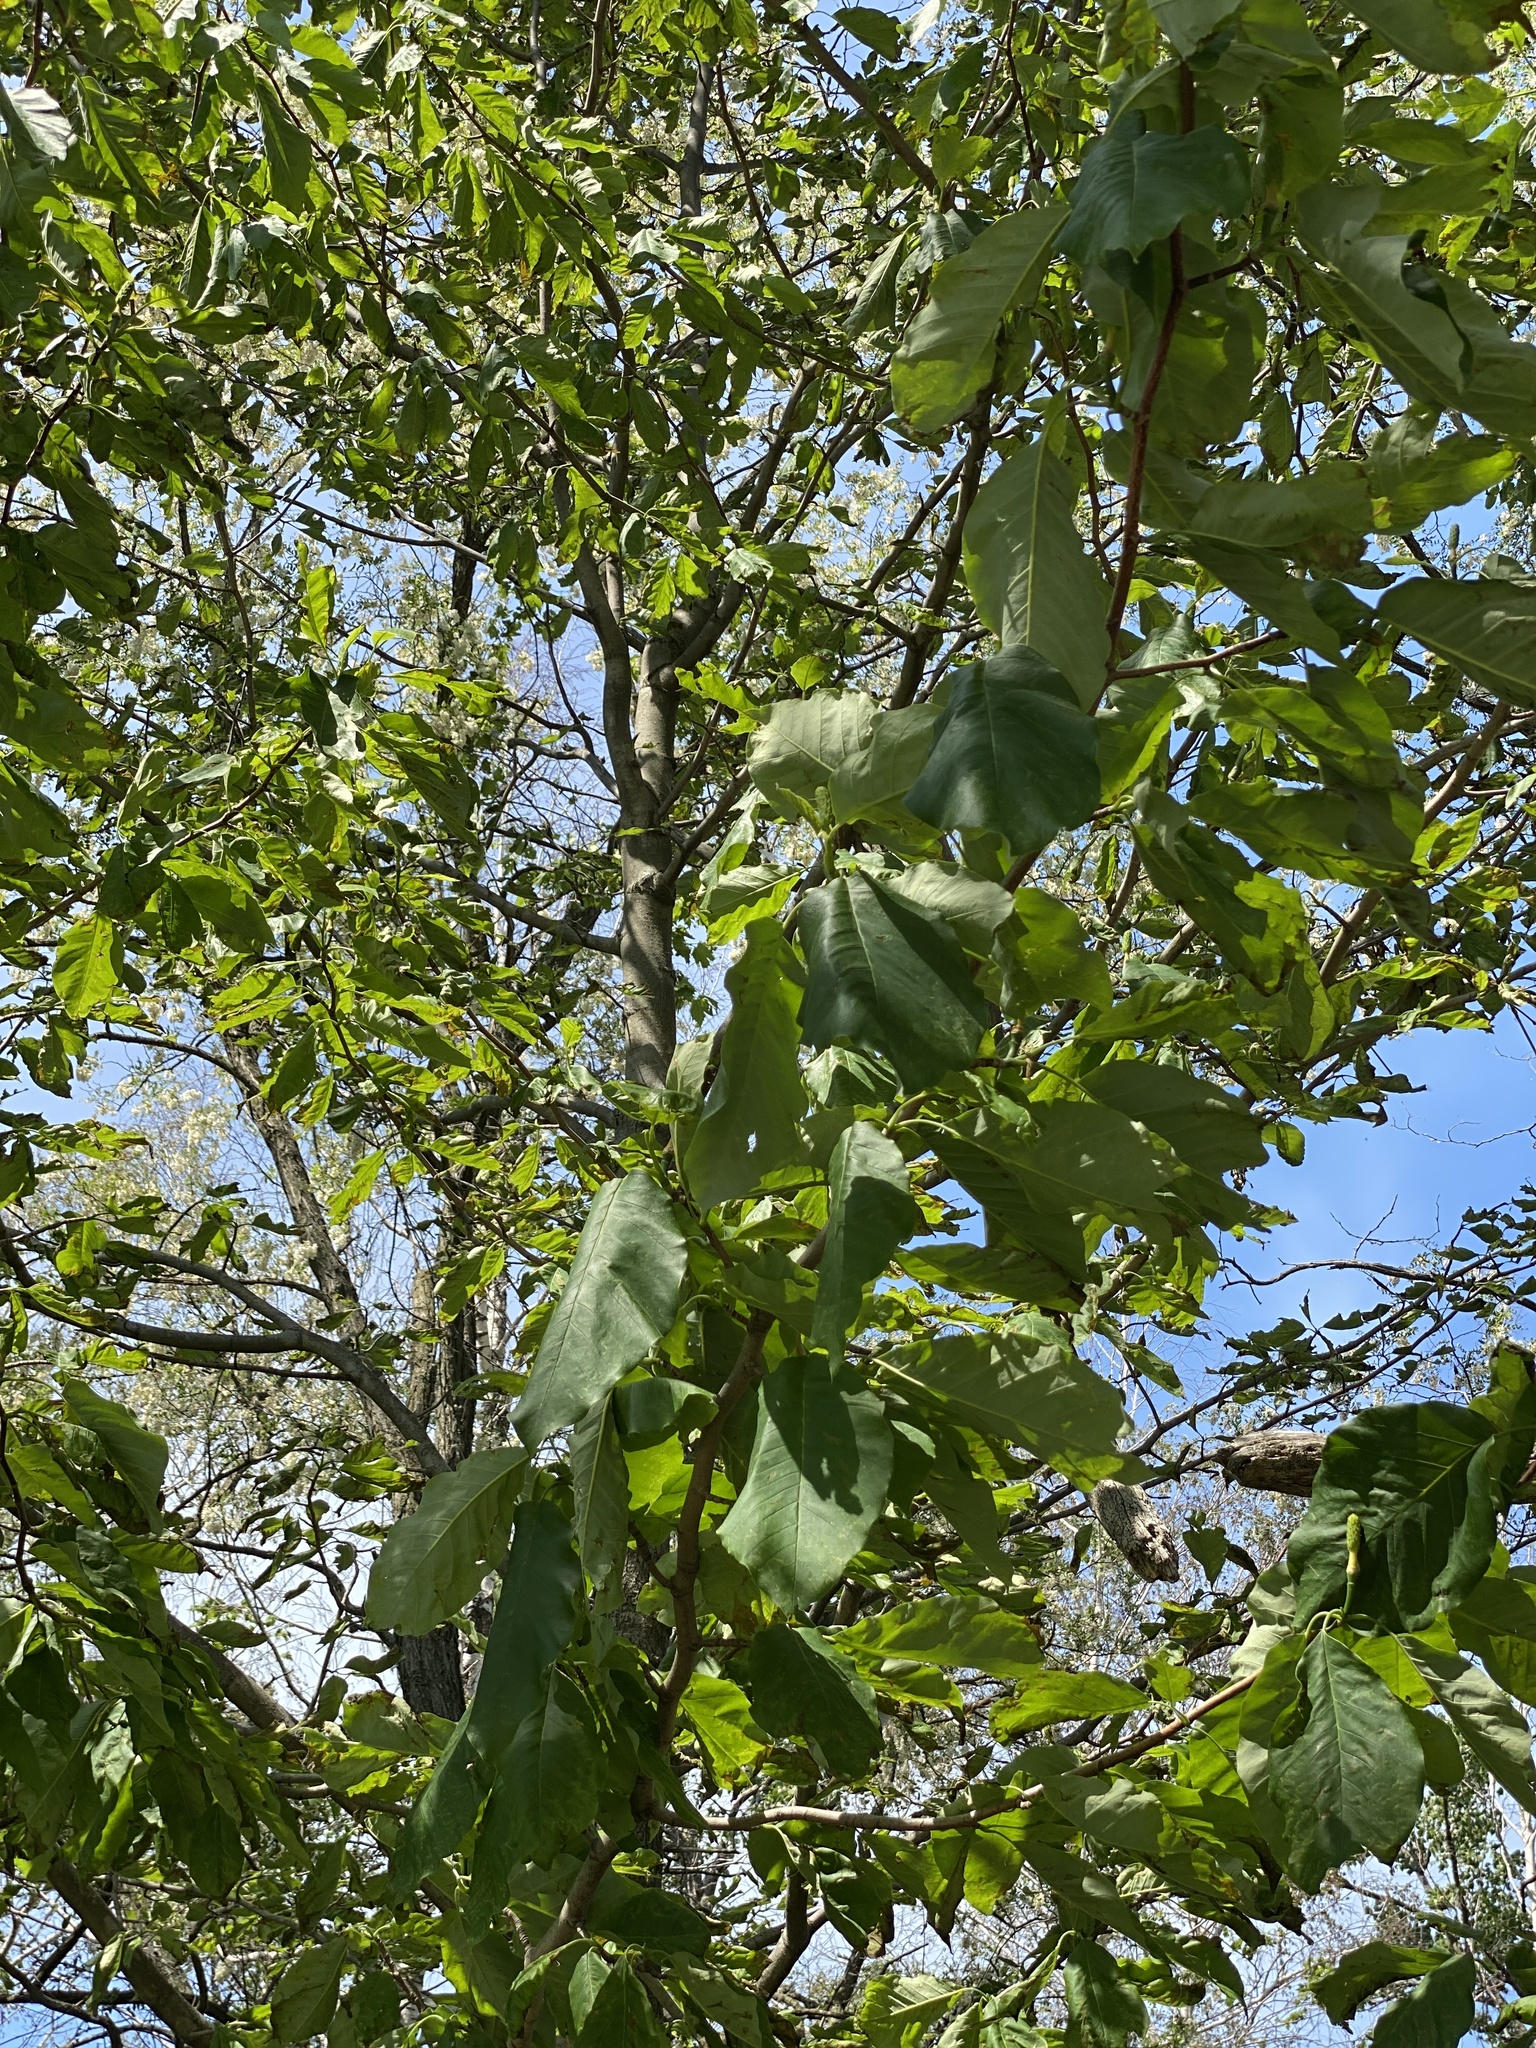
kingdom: Plantae
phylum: Tracheophyta
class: Magnoliopsida
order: Magnoliales
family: Magnoliaceae
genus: Magnolia
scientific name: Magnolia acuminata
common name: Cucumber magnolia
